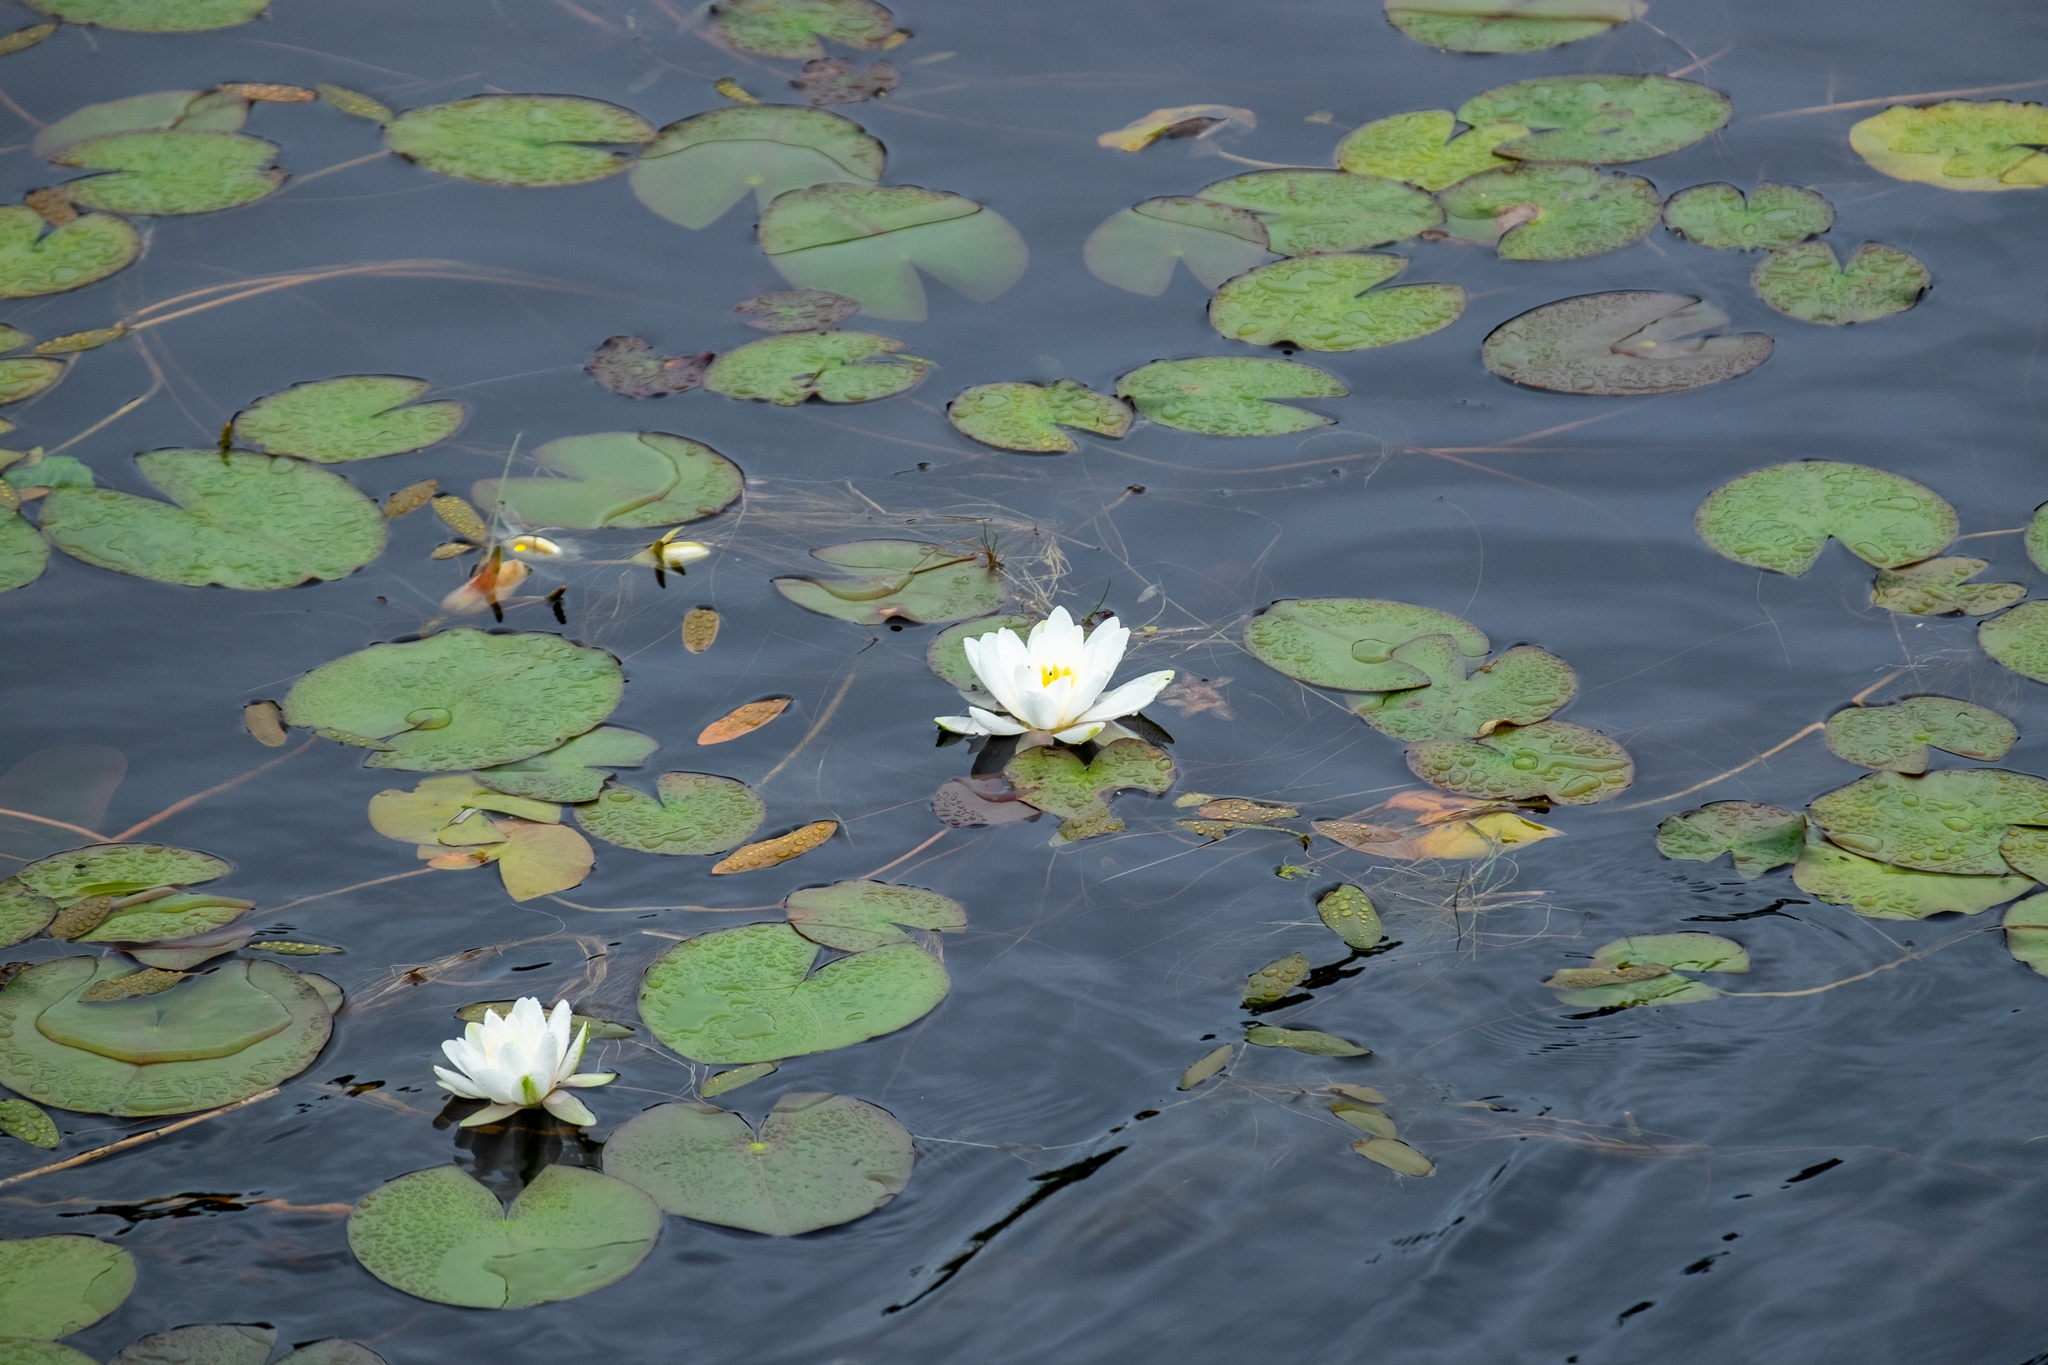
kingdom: Plantae
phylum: Tracheophyta
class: Magnoliopsida
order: Nymphaeales
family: Nymphaeaceae
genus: Nymphaea
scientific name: Nymphaea alba
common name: White water-lily
